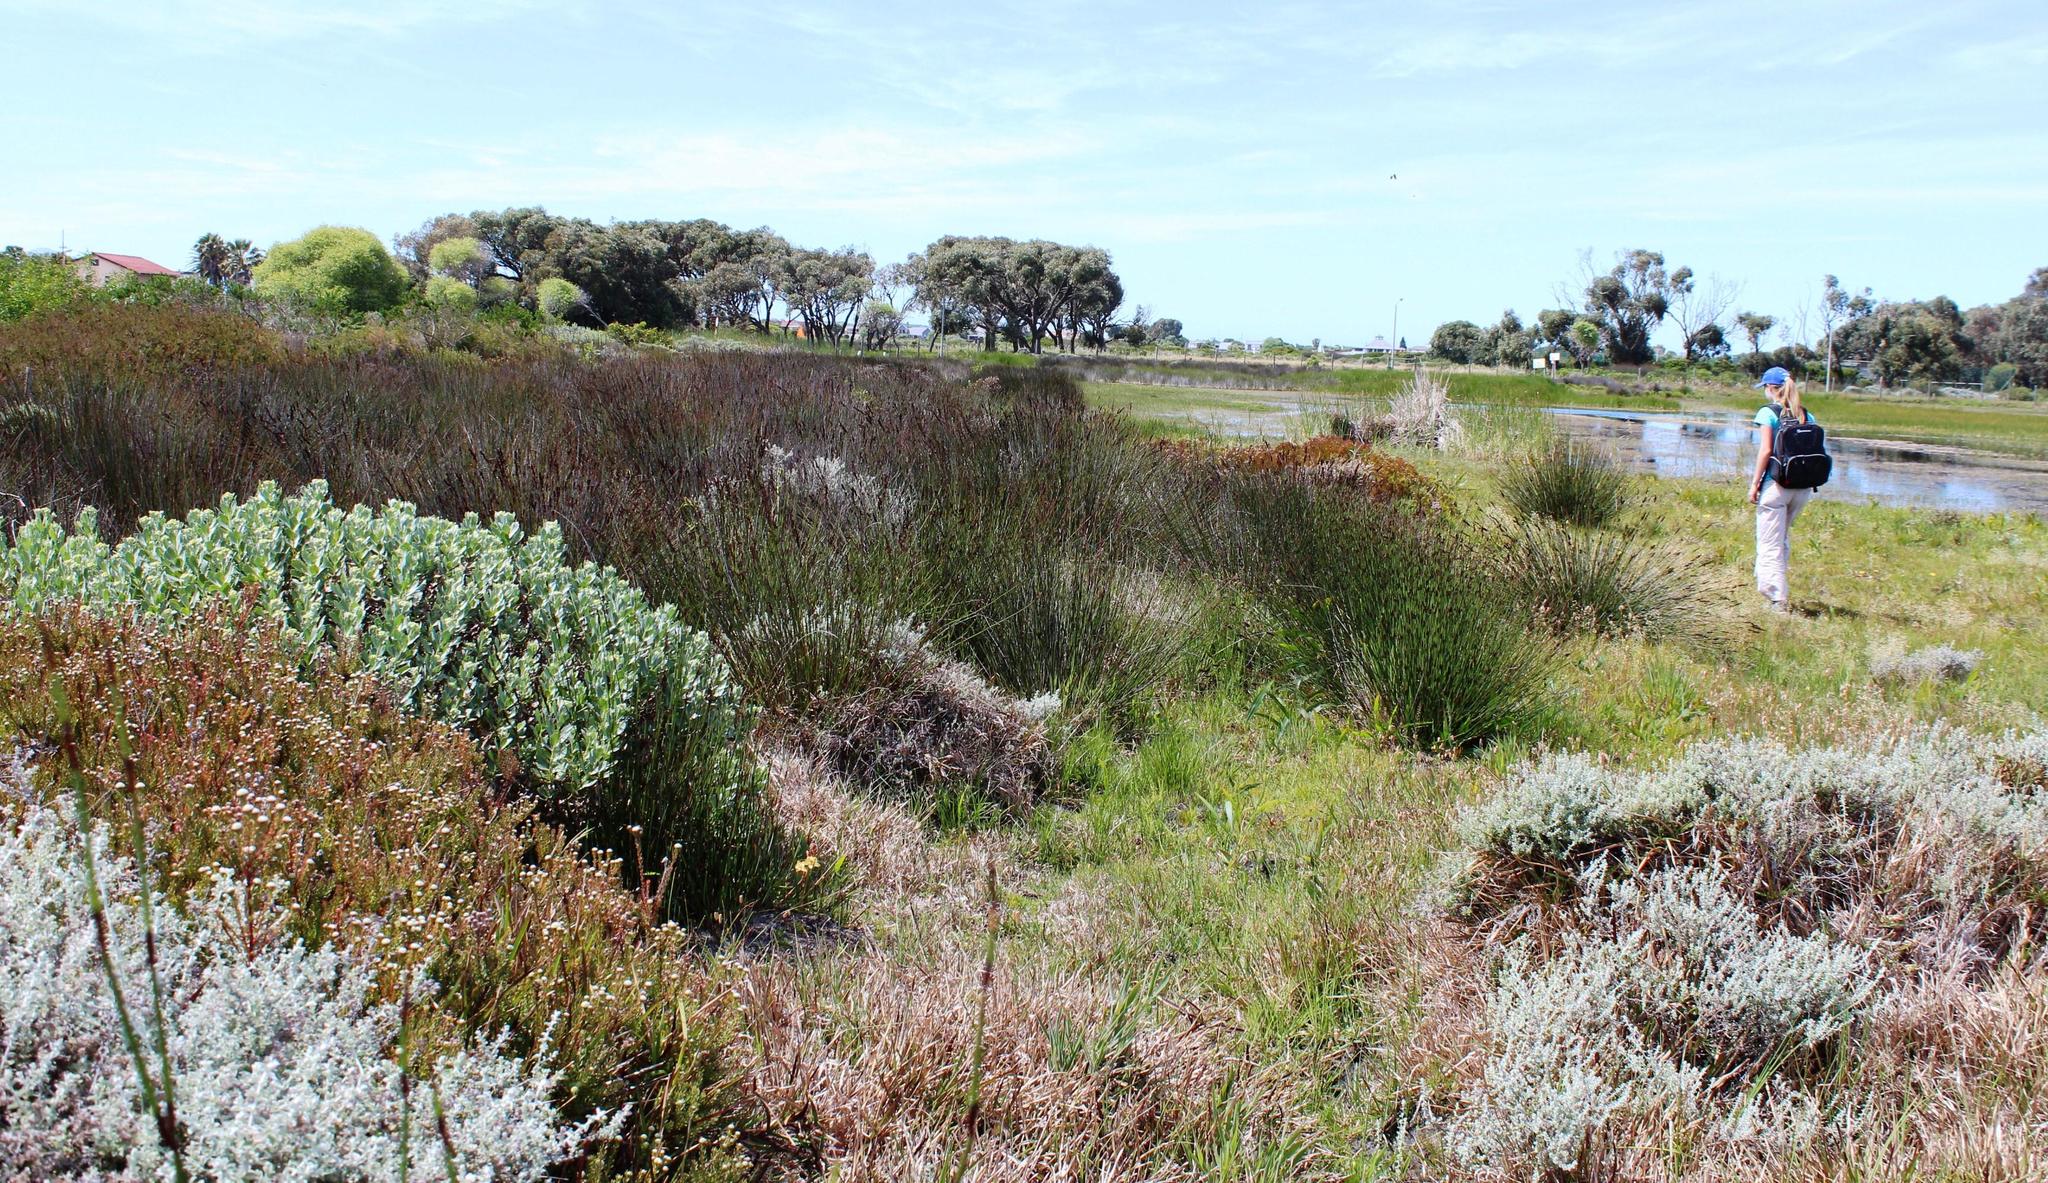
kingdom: Plantae
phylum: Tracheophyta
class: Liliopsida
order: Poales
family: Restionaceae
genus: Elegia
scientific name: Elegia tectorum
